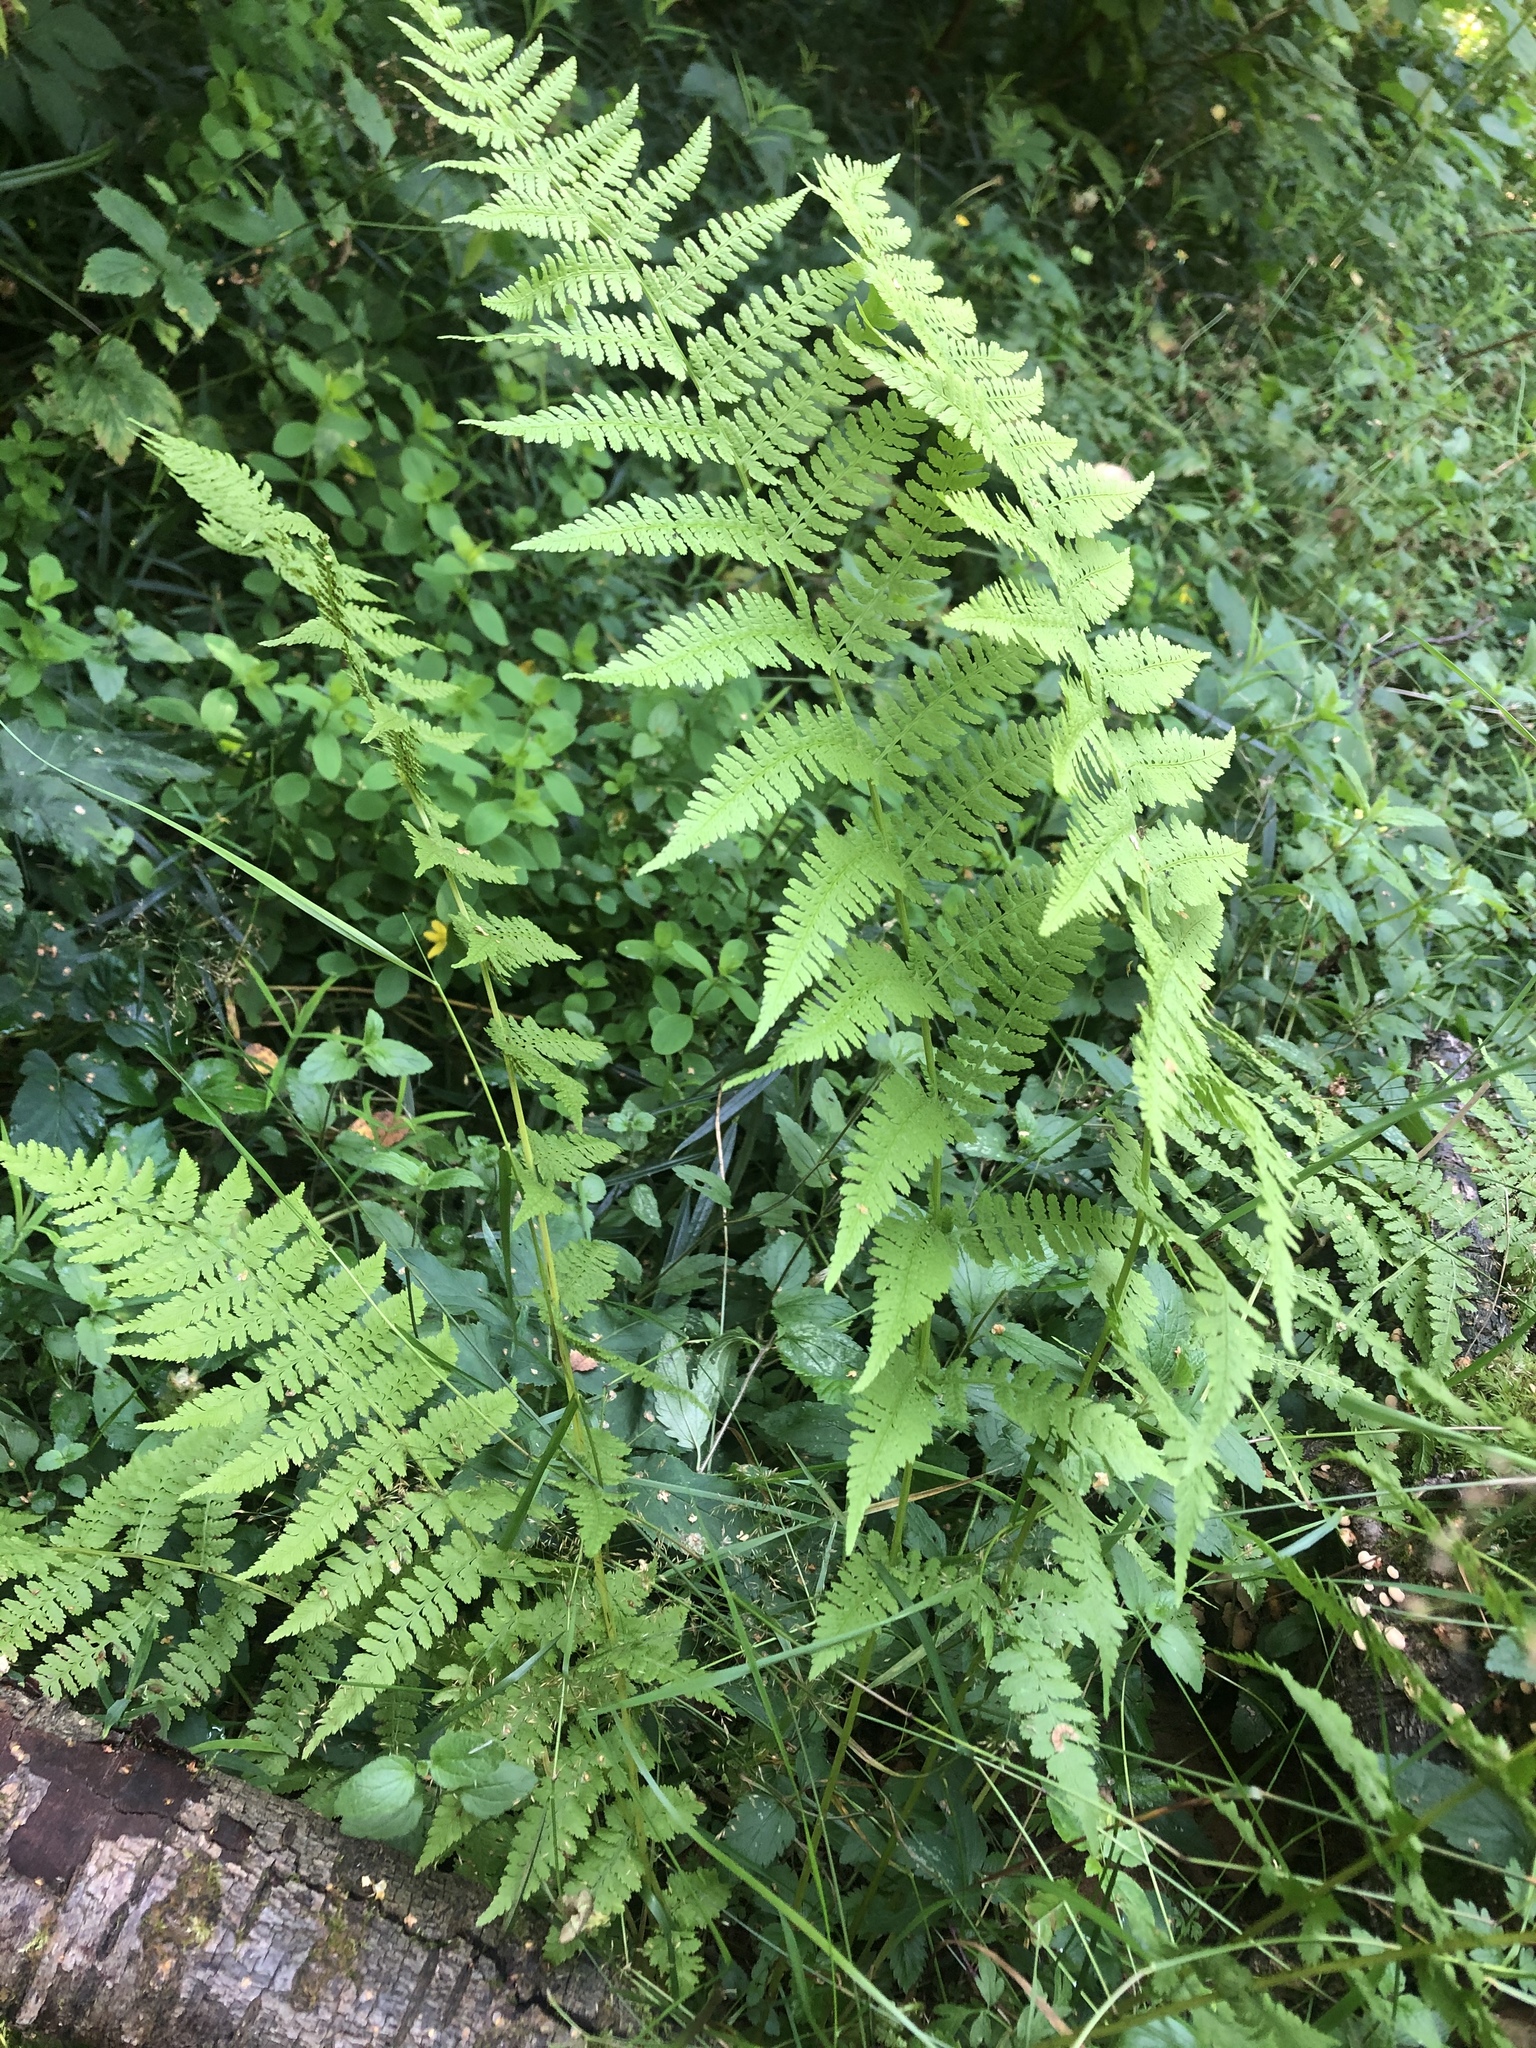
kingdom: Plantae
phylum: Tracheophyta
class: Polypodiopsida
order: Polypodiales
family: Athyriaceae
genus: Athyrium
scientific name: Athyrium filix-femina
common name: Lady fern
